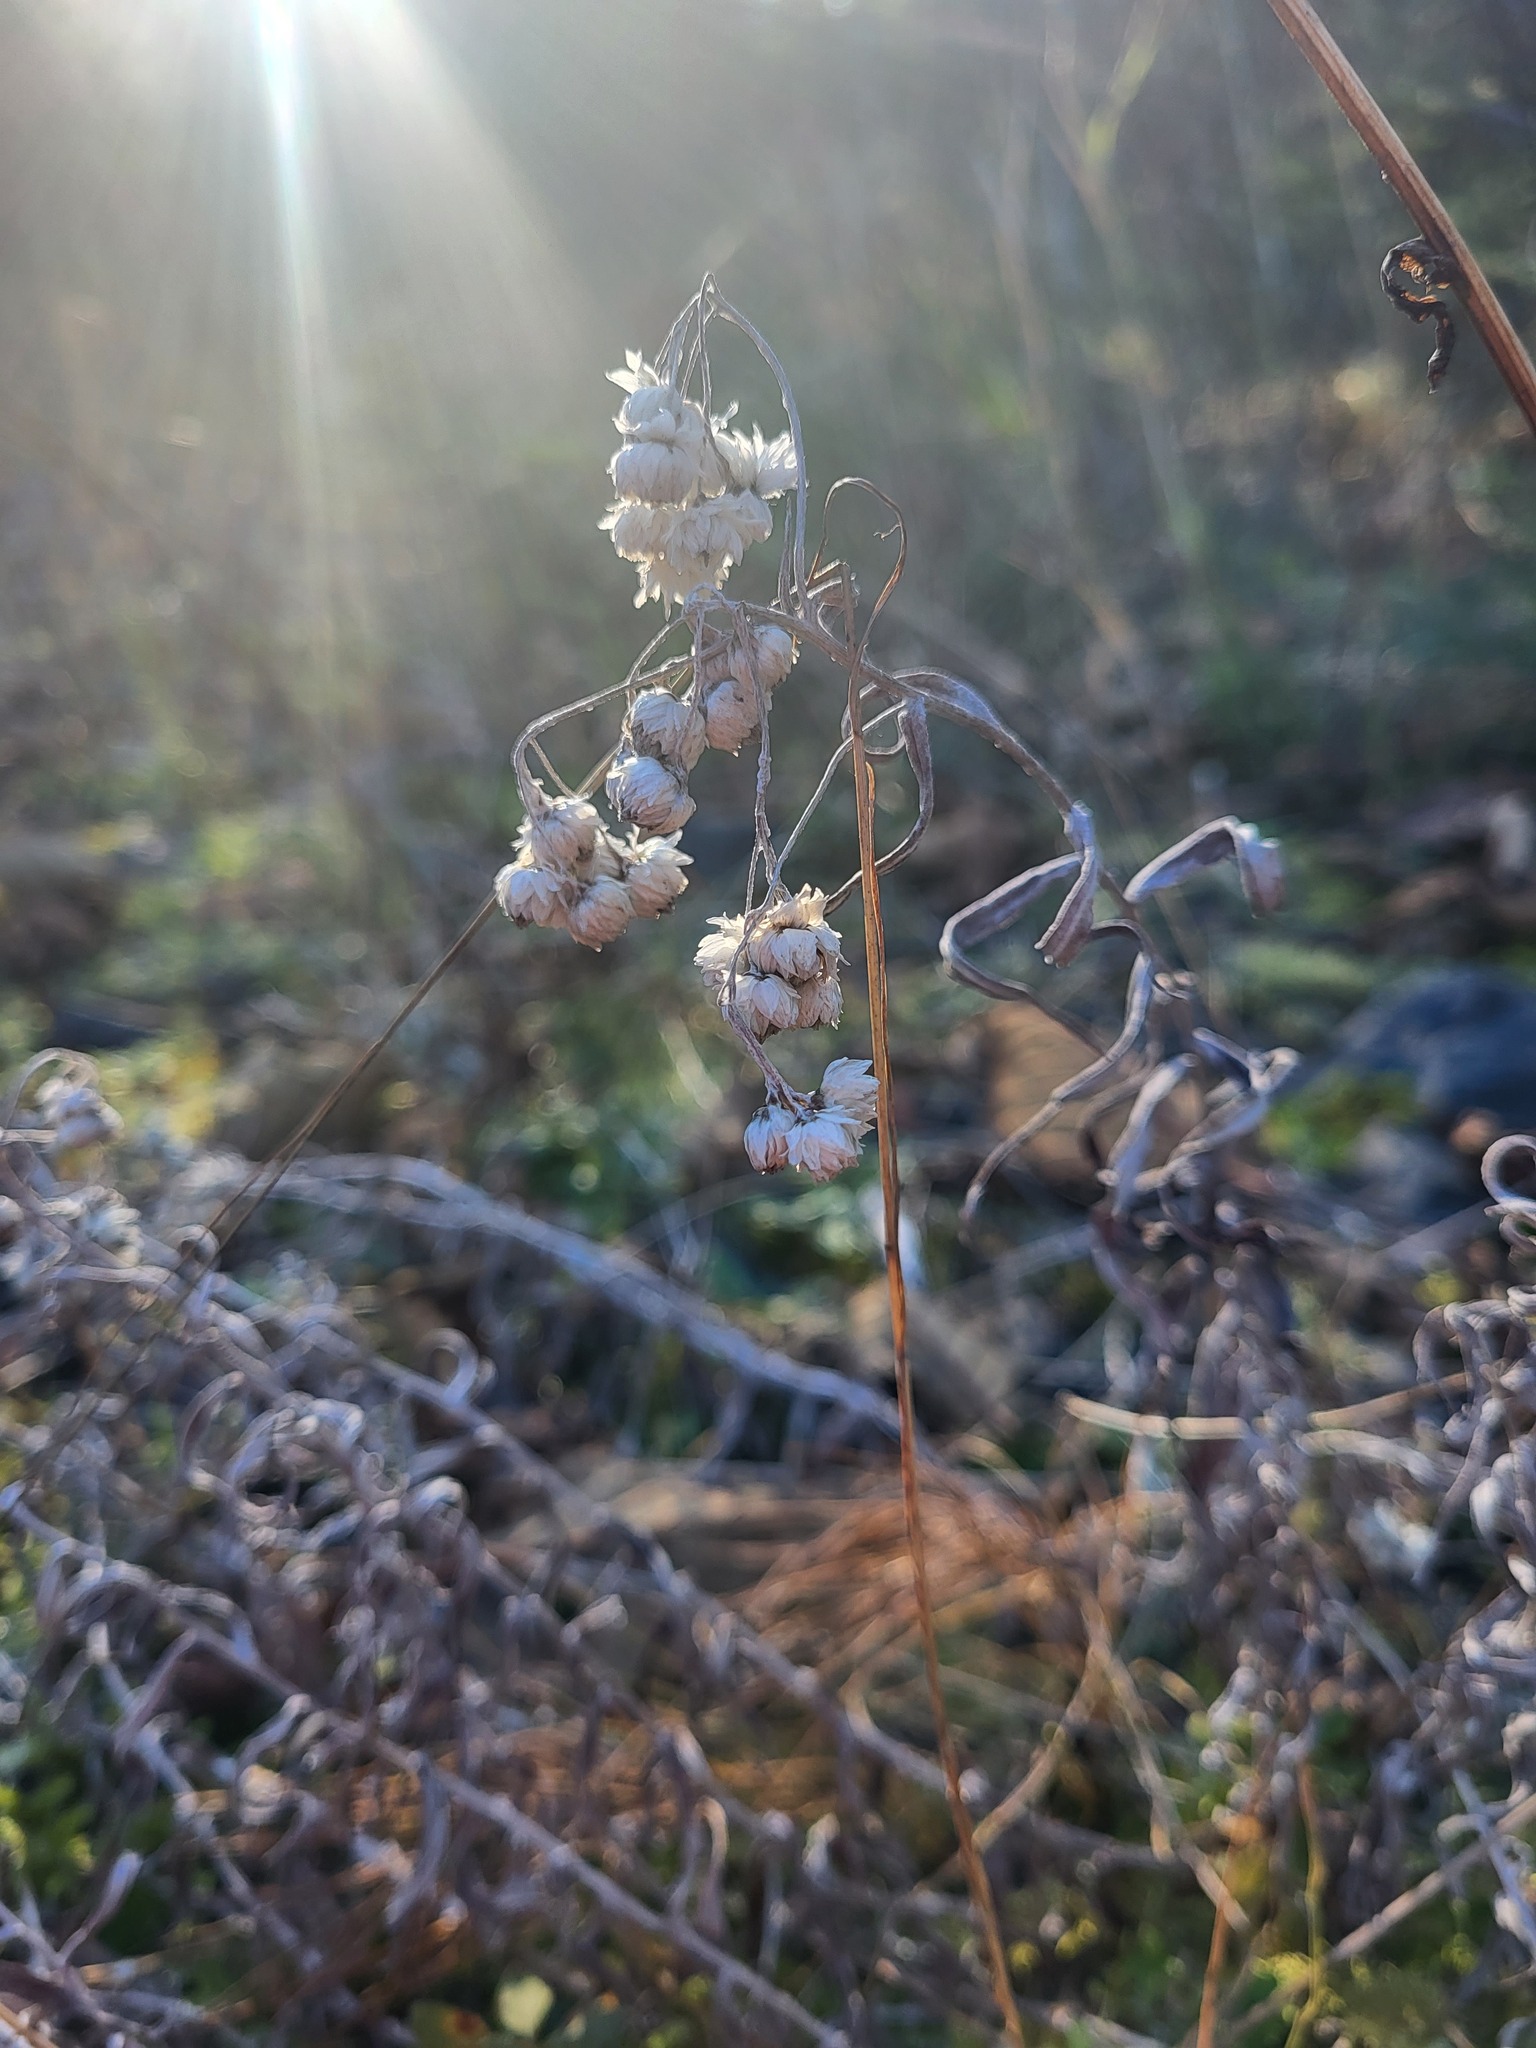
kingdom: Plantae
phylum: Tracheophyta
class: Magnoliopsida
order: Asterales
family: Asteraceae
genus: Anaphalis
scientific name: Anaphalis margaritacea
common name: Pearly everlasting
